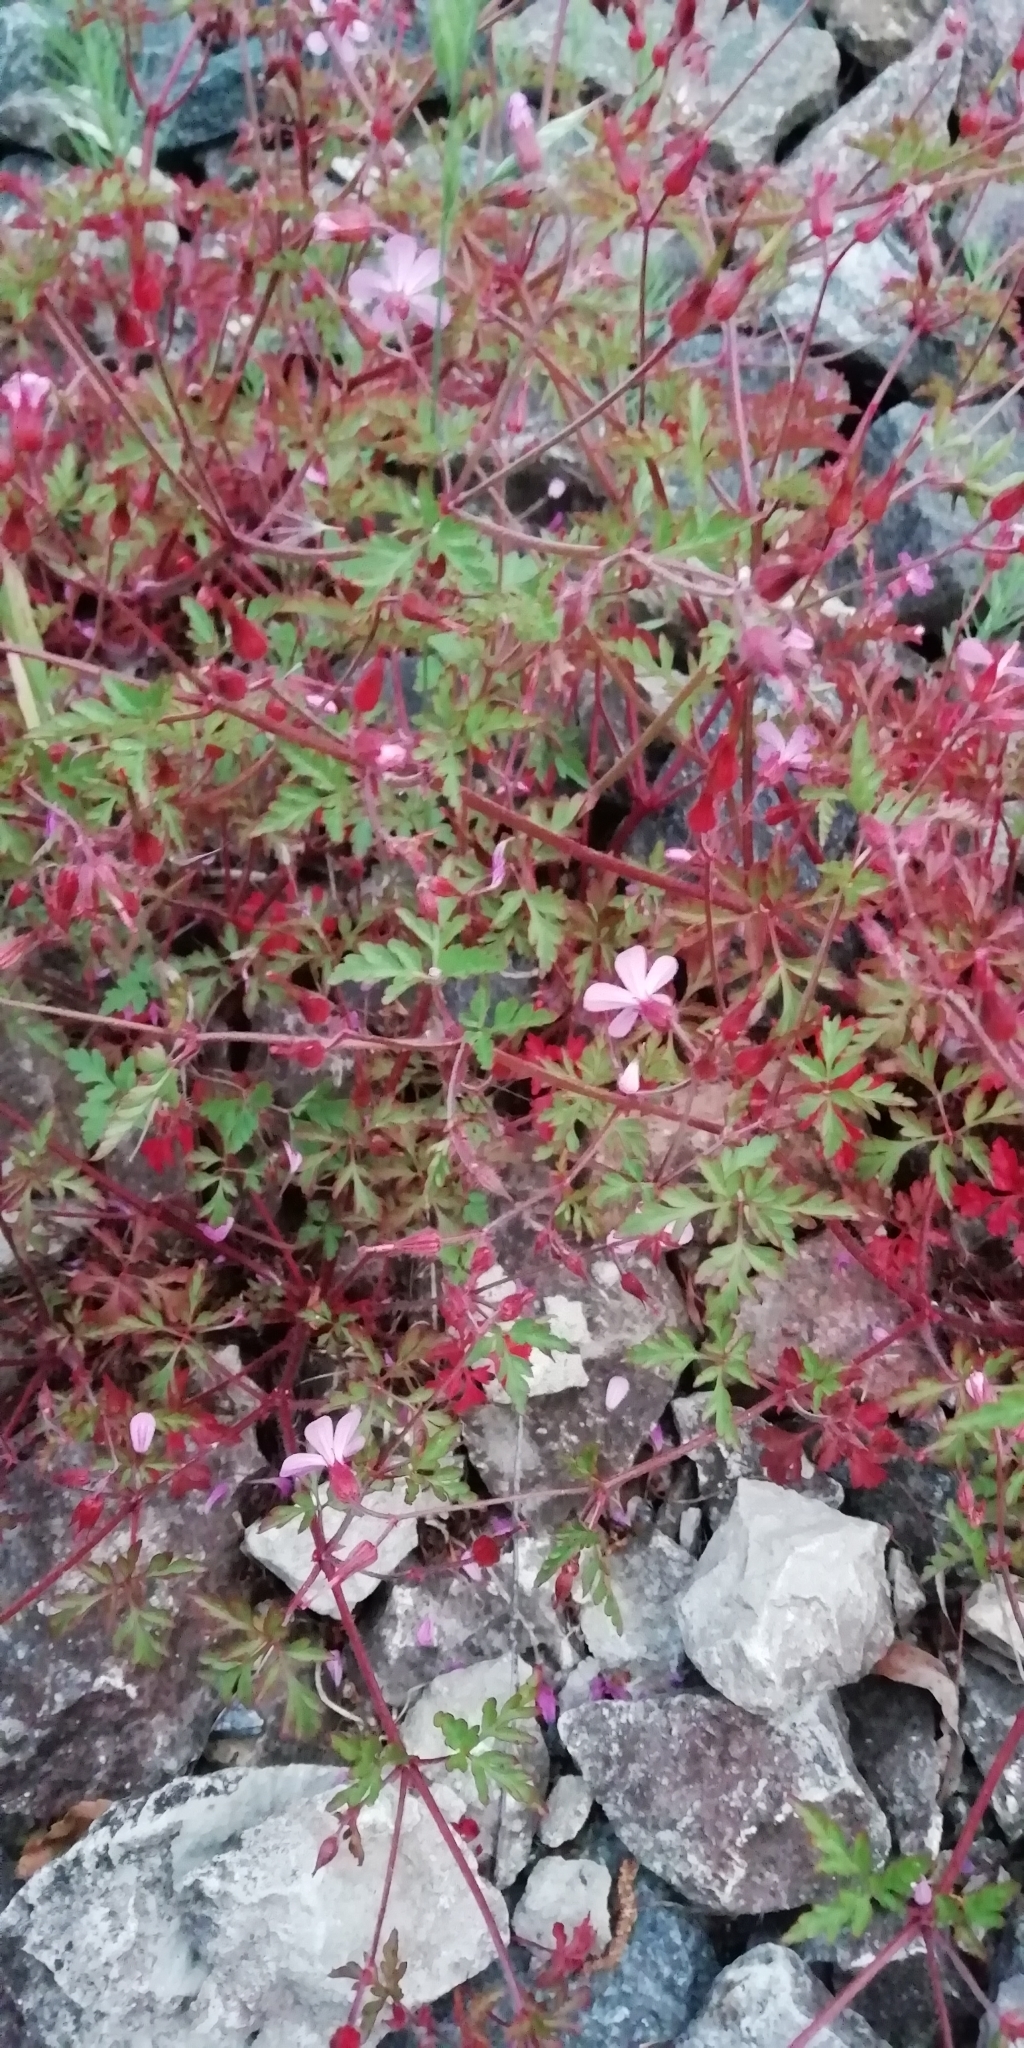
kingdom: Plantae
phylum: Tracheophyta
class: Magnoliopsida
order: Geraniales
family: Geraniaceae
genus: Geranium
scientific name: Geranium robertianum
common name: Herb-robert
